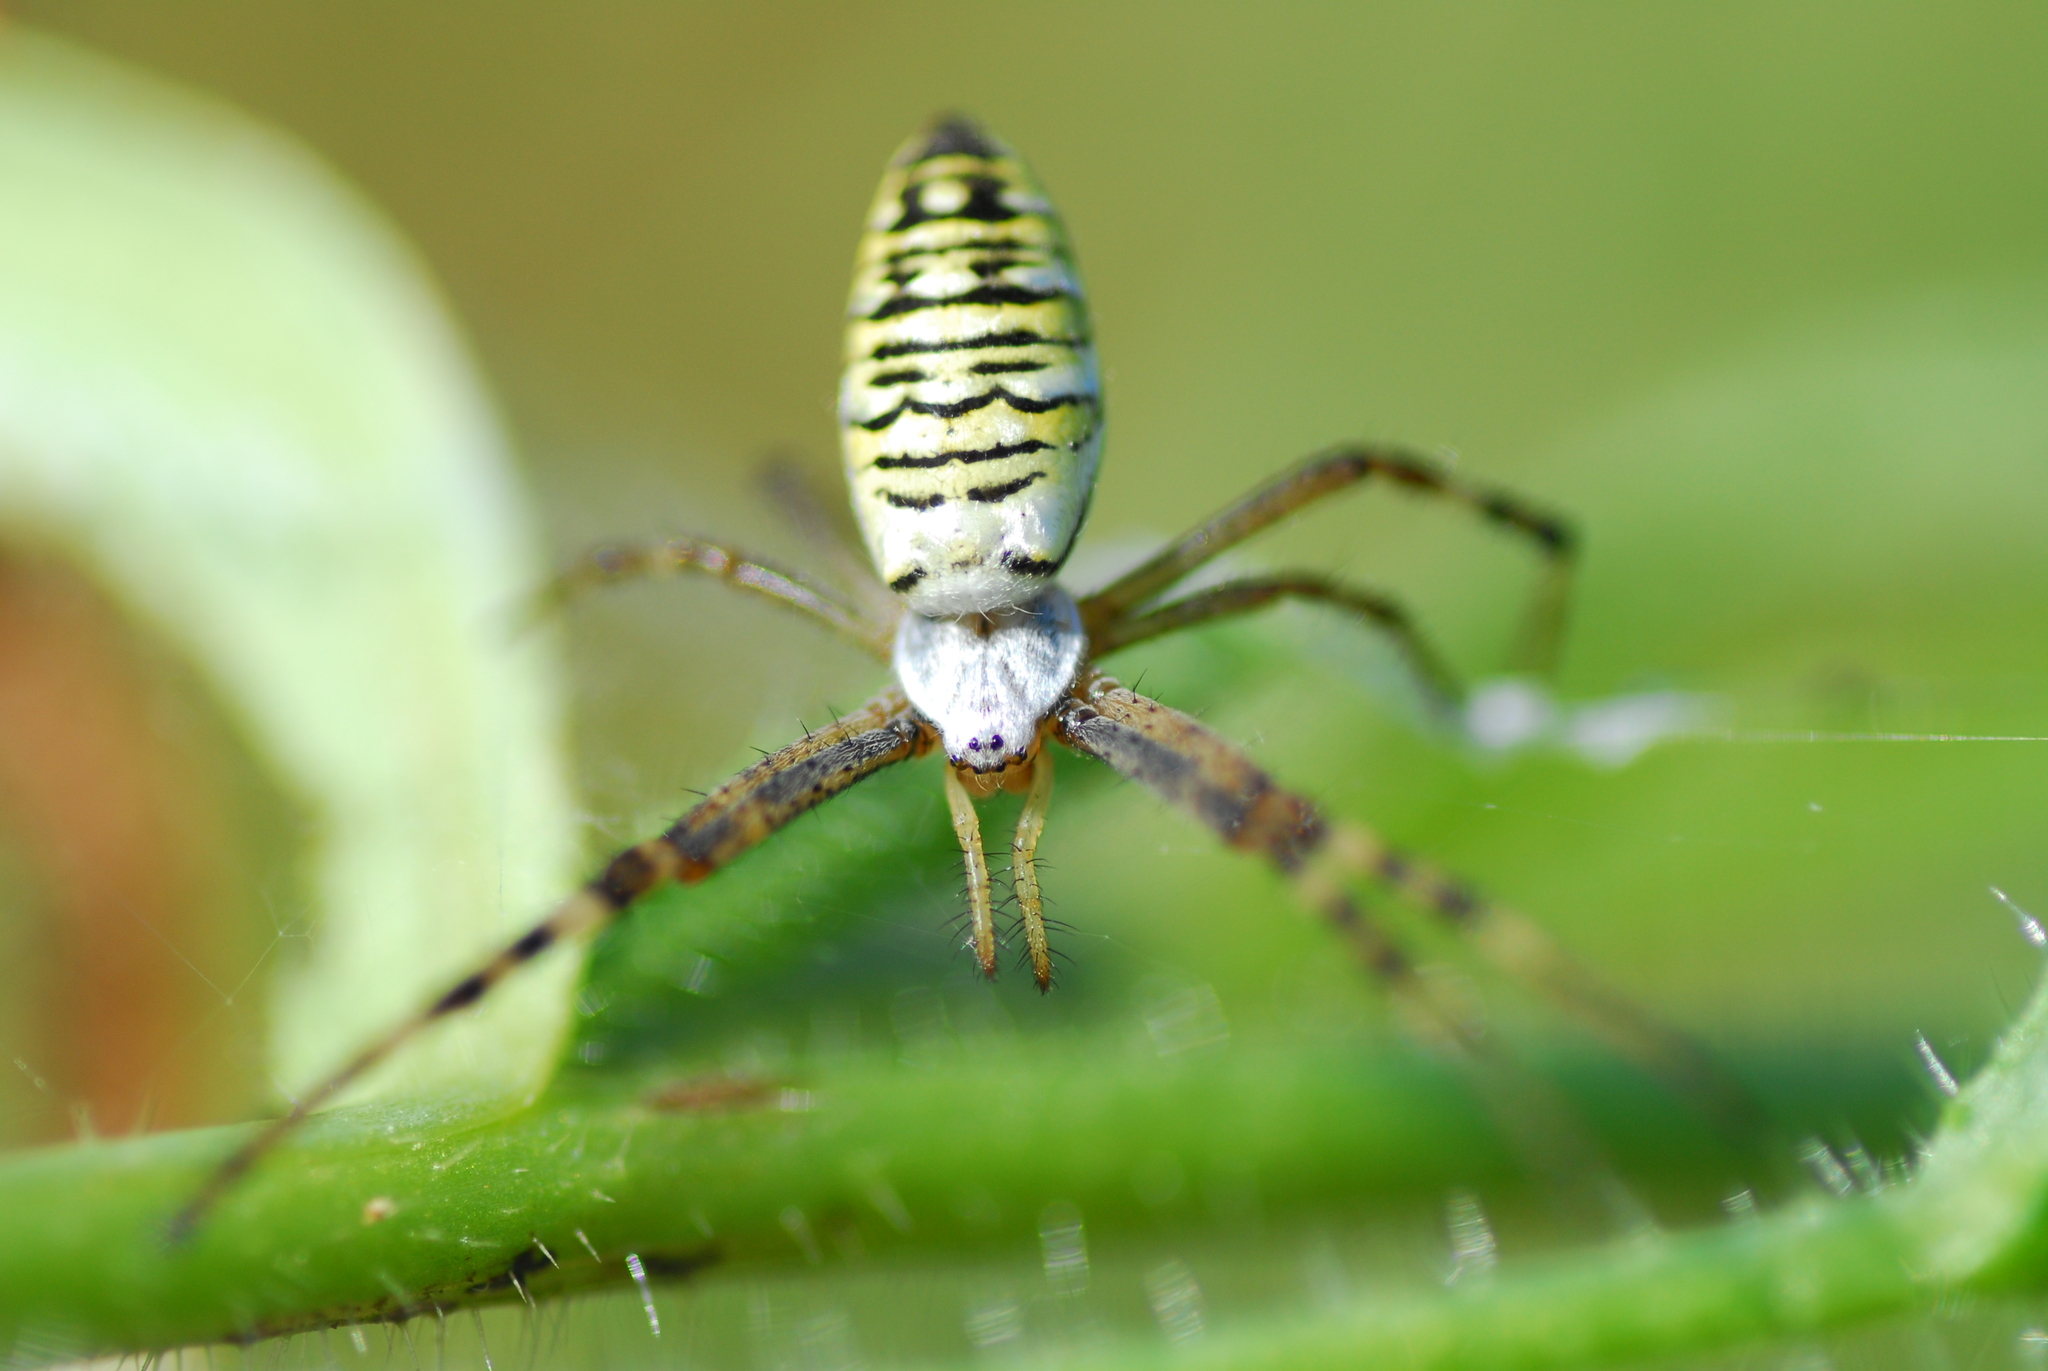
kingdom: Animalia
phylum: Arthropoda
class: Arachnida
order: Araneae
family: Araneidae
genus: Argiope
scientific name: Argiope bruennichi
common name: Wasp spider
